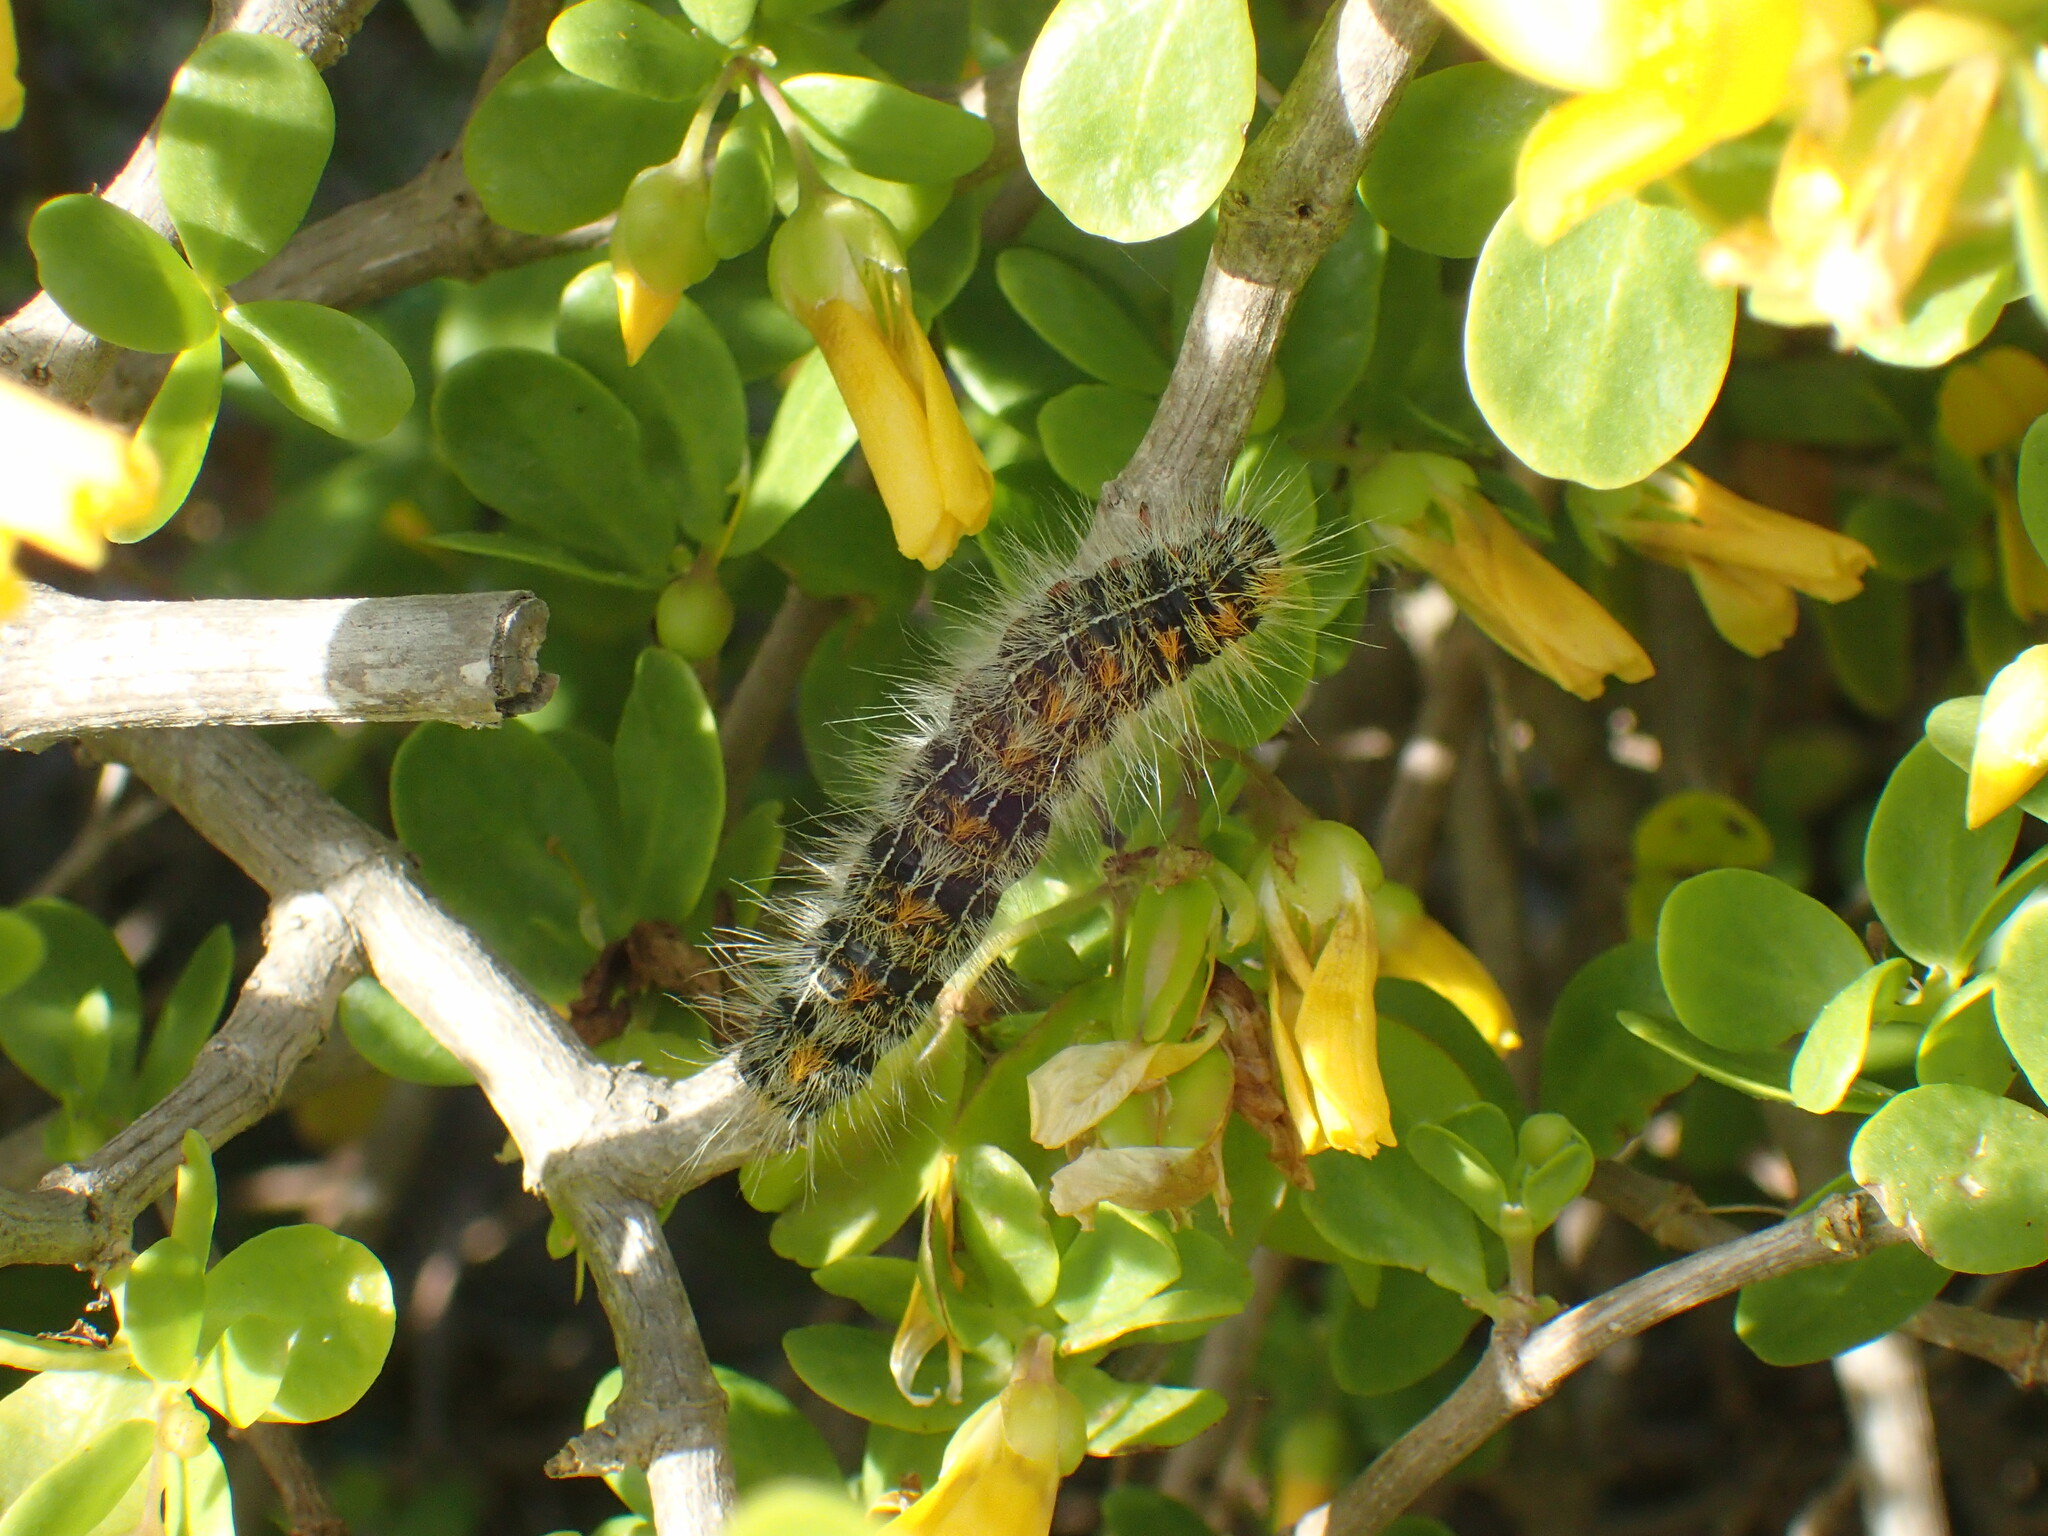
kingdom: Animalia
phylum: Arthropoda
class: Insecta
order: Lepidoptera
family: Lasiocampidae
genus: Bombycomorpha
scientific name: Bombycomorpha bifascia
